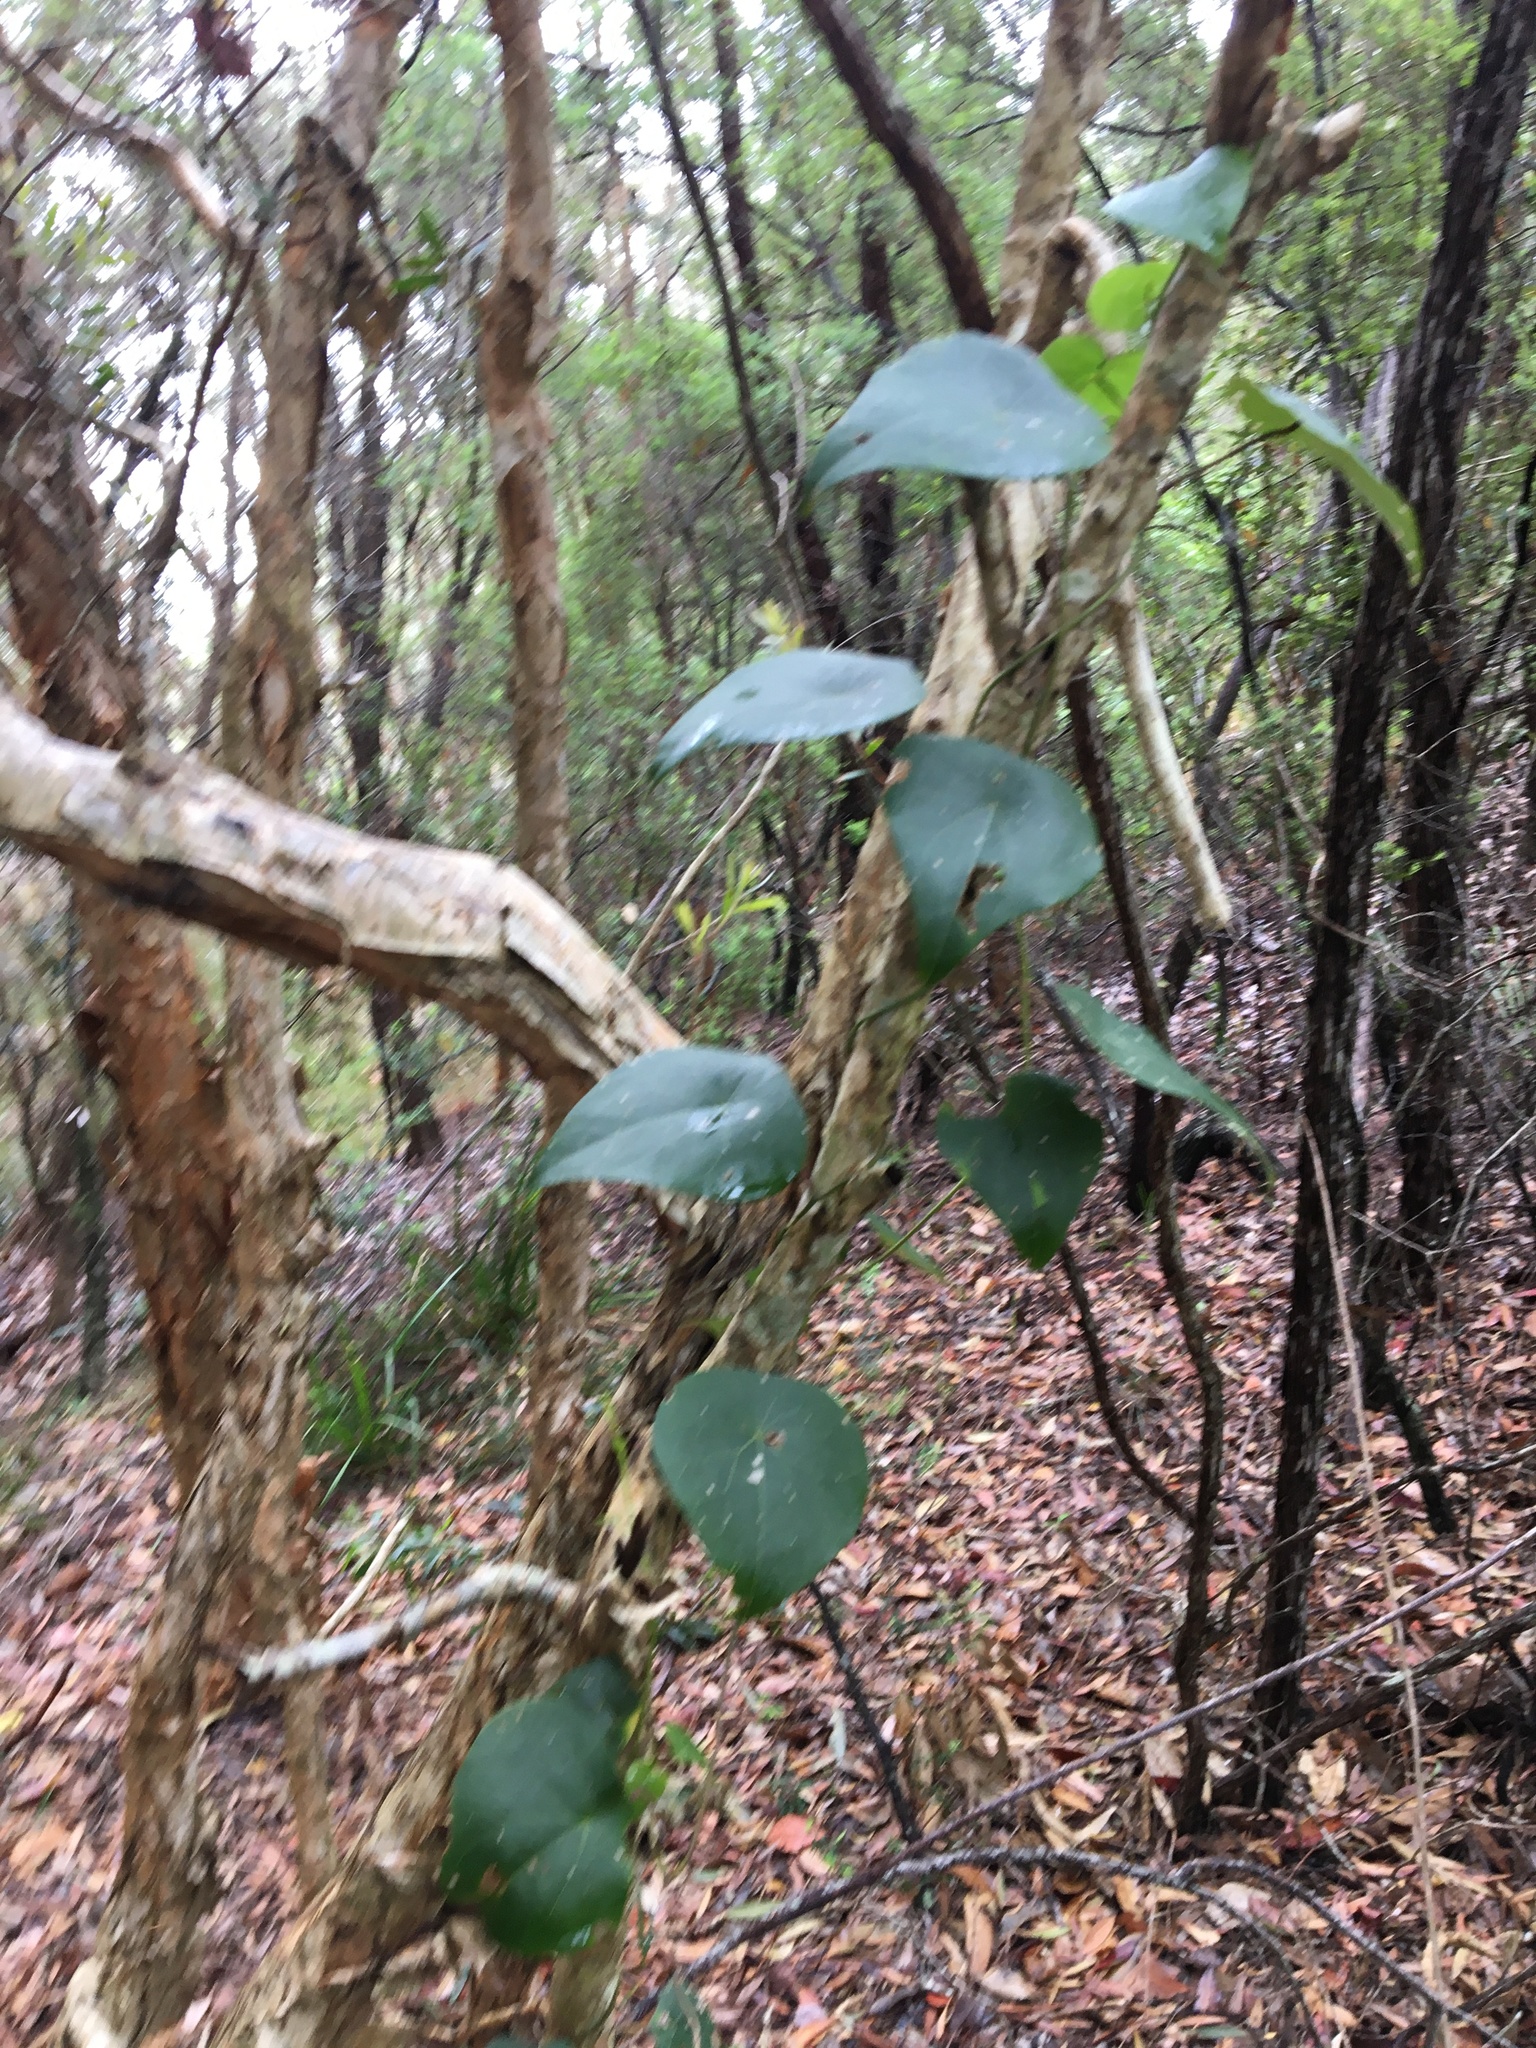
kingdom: Plantae
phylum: Tracheophyta
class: Magnoliopsida
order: Ranunculales
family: Menispermaceae
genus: Stephania
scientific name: Stephania japonica
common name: Snake vine
